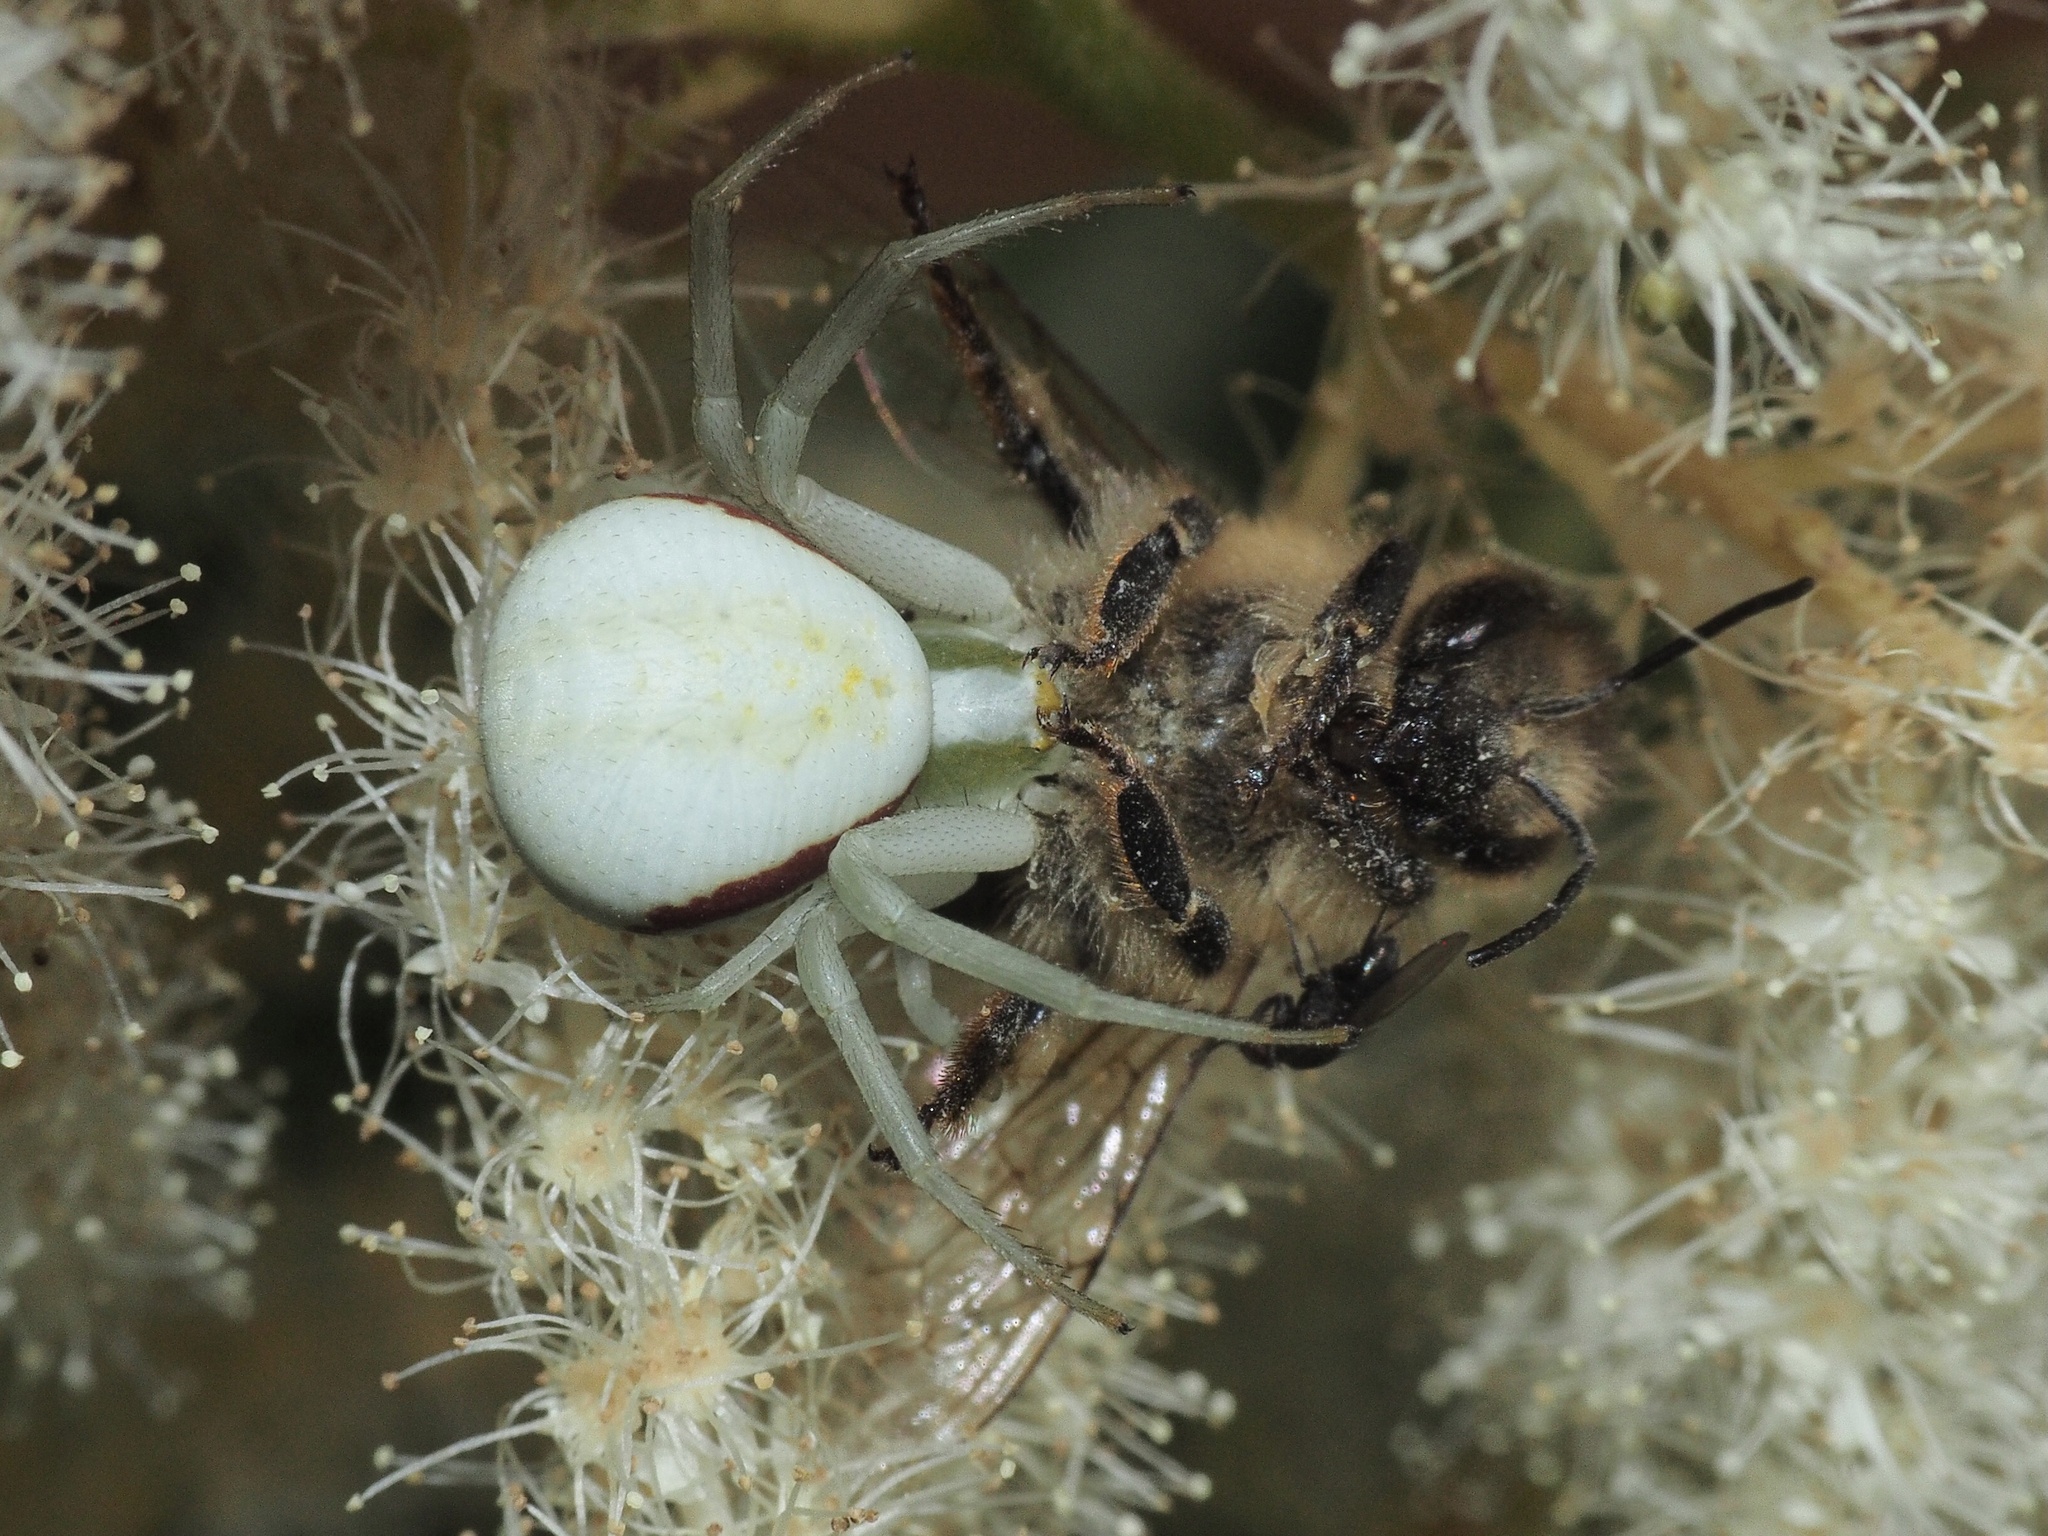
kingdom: Animalia
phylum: Arthropoda
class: Arachnida
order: Araneae
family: Thomisidae
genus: Misumena
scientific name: Misumena vatia
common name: Goldenrod crab spider
